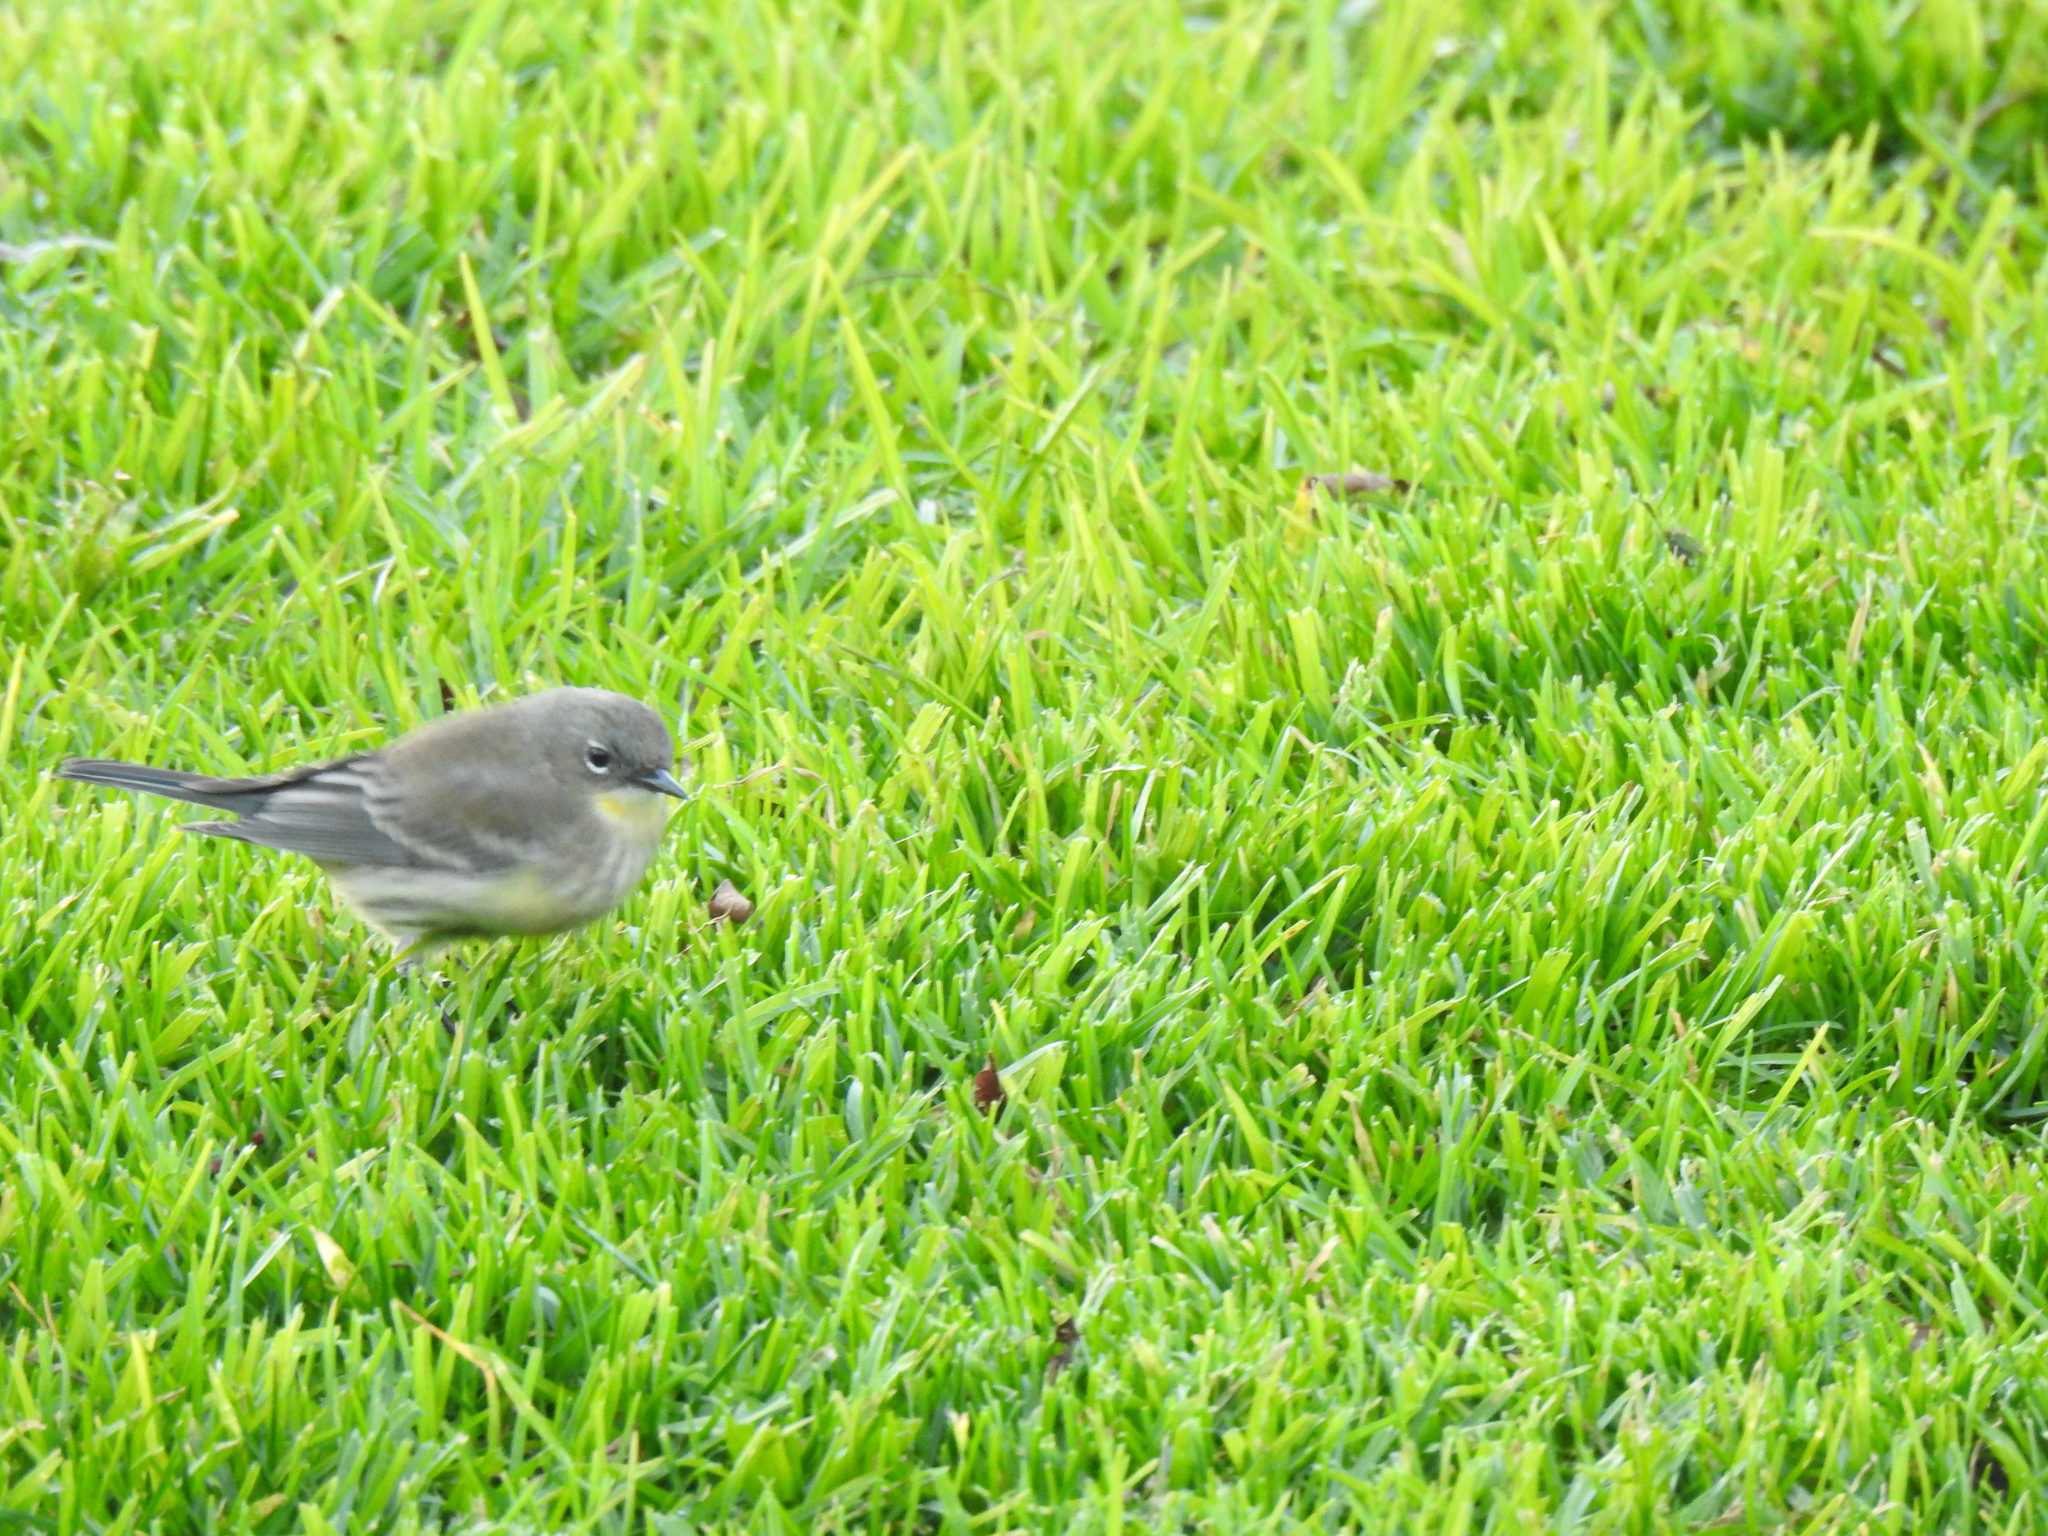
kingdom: Animalia
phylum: Chordata
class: Aves
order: Passeriformes
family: Parulidae
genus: Setophaga
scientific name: Setophaga coronata
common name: Myrtle warbler
